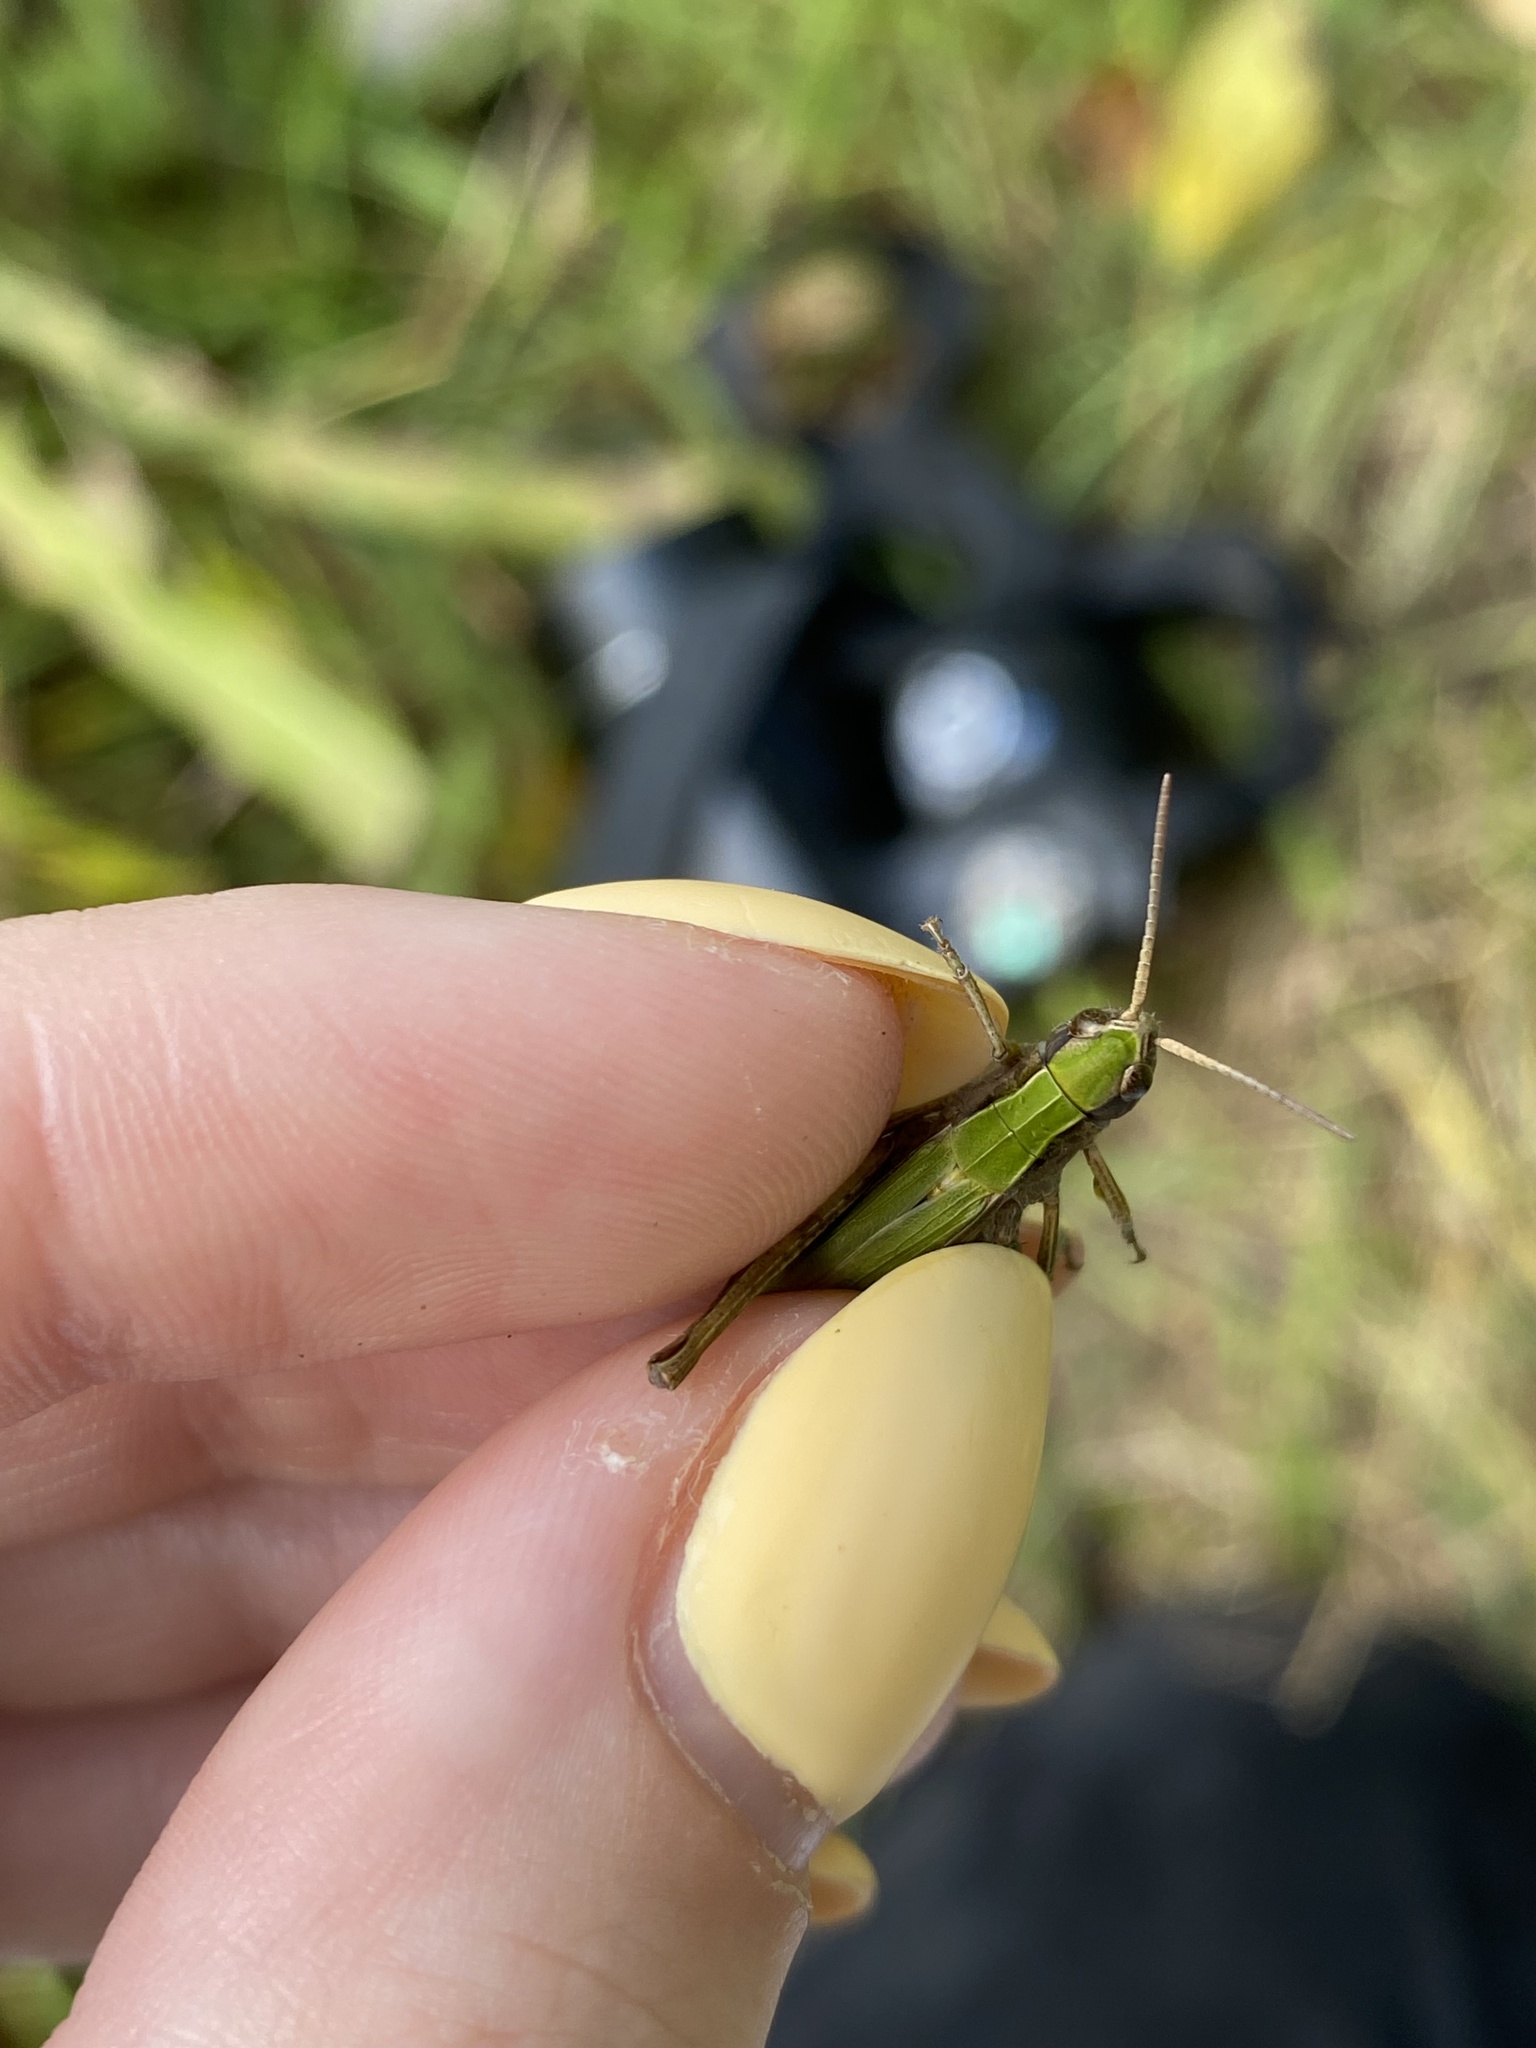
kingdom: Animalia
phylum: Arthropoda
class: Insecta
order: Orthoptera
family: Acrididae
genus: Chorthippus
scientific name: Chorthippus dorsatus
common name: Steppe grasshopper
